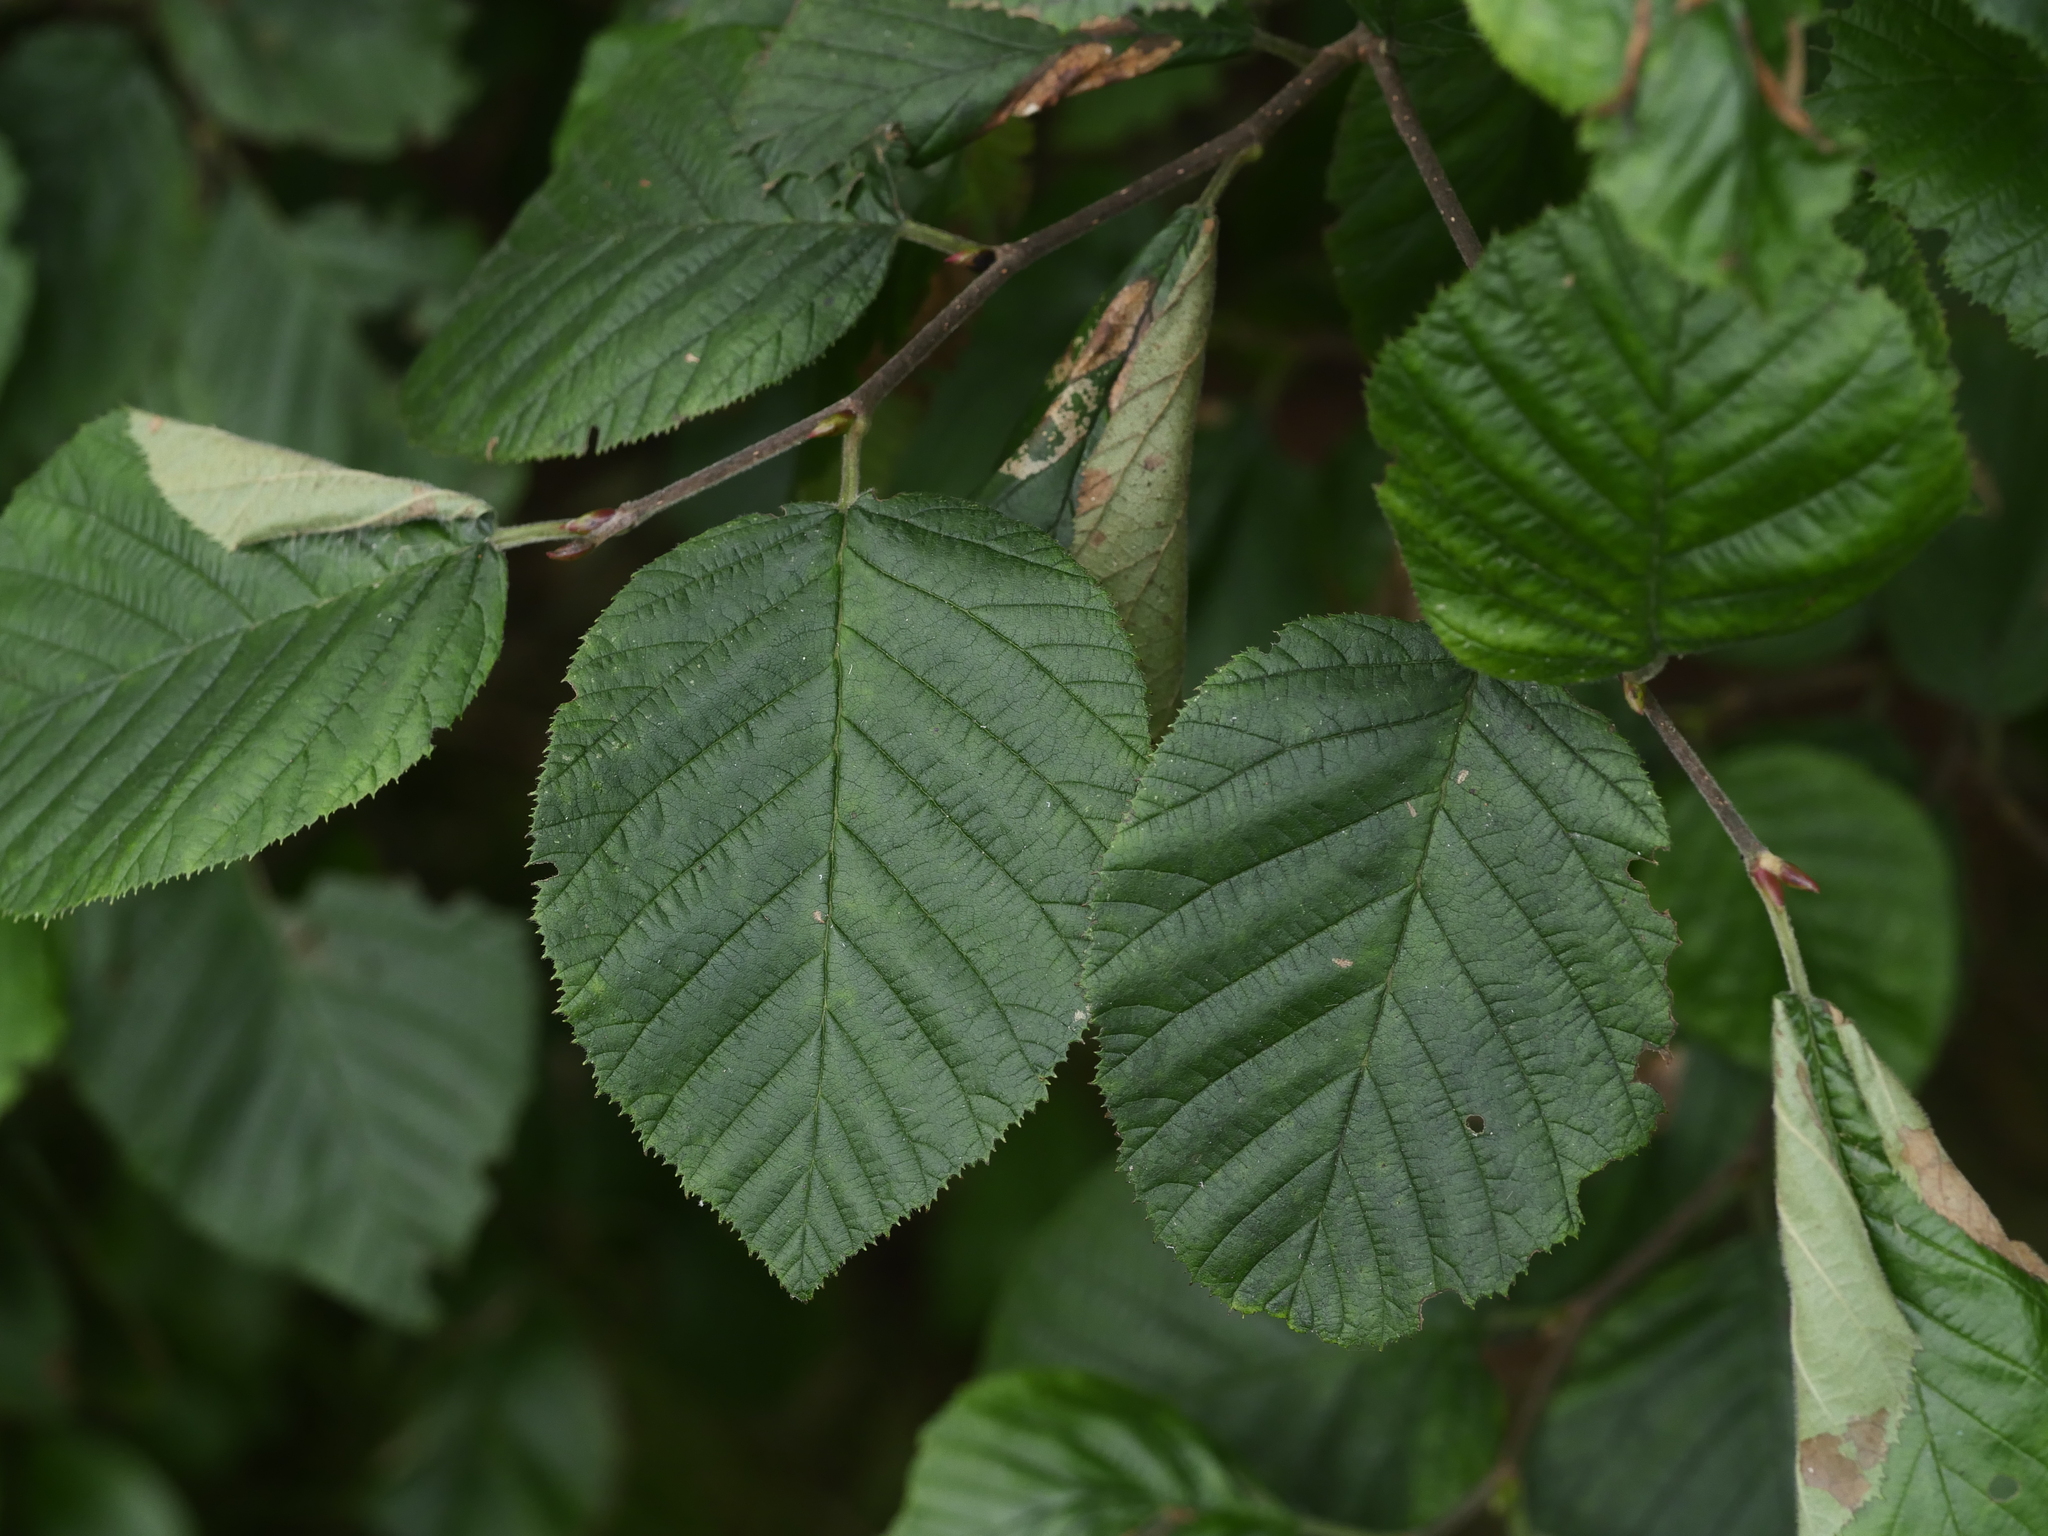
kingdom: Plantae
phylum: Tracheophyta
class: Magnoliopsida
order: Fagales
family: Betulaceae
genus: Alnus
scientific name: Alnus alnobetula
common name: Green alder
